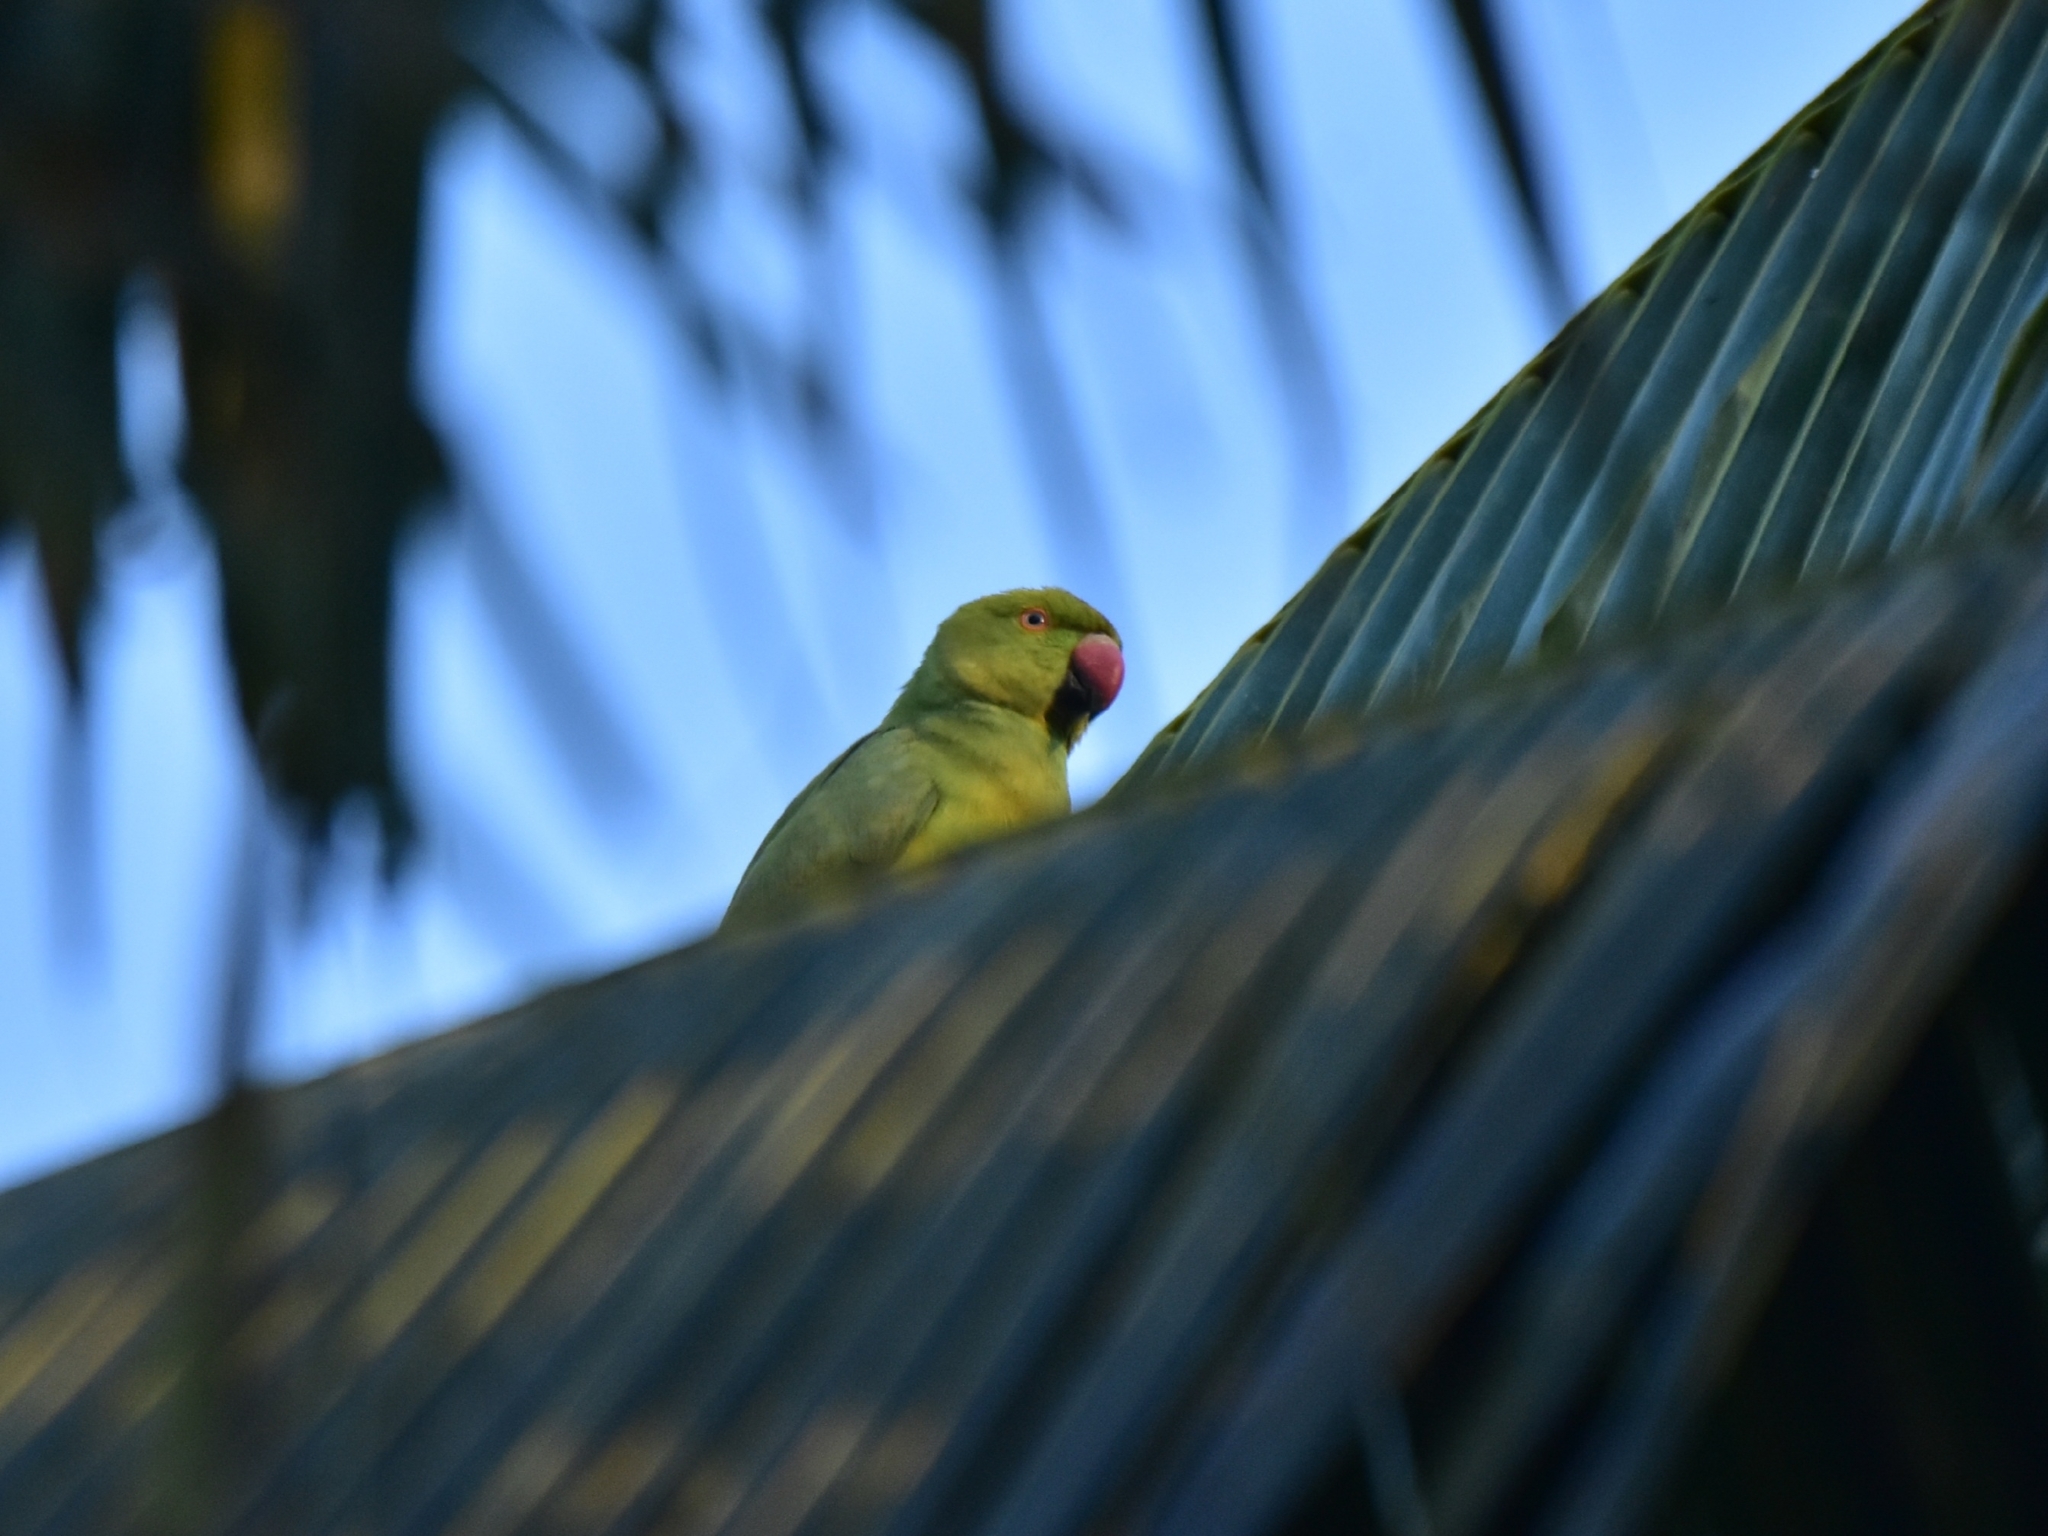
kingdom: Animalia
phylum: Chordata
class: Aves
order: Psittaciformes
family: Psittacidae
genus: Psittacula
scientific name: Psittacula krameri
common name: Rose-ringed parakeet
